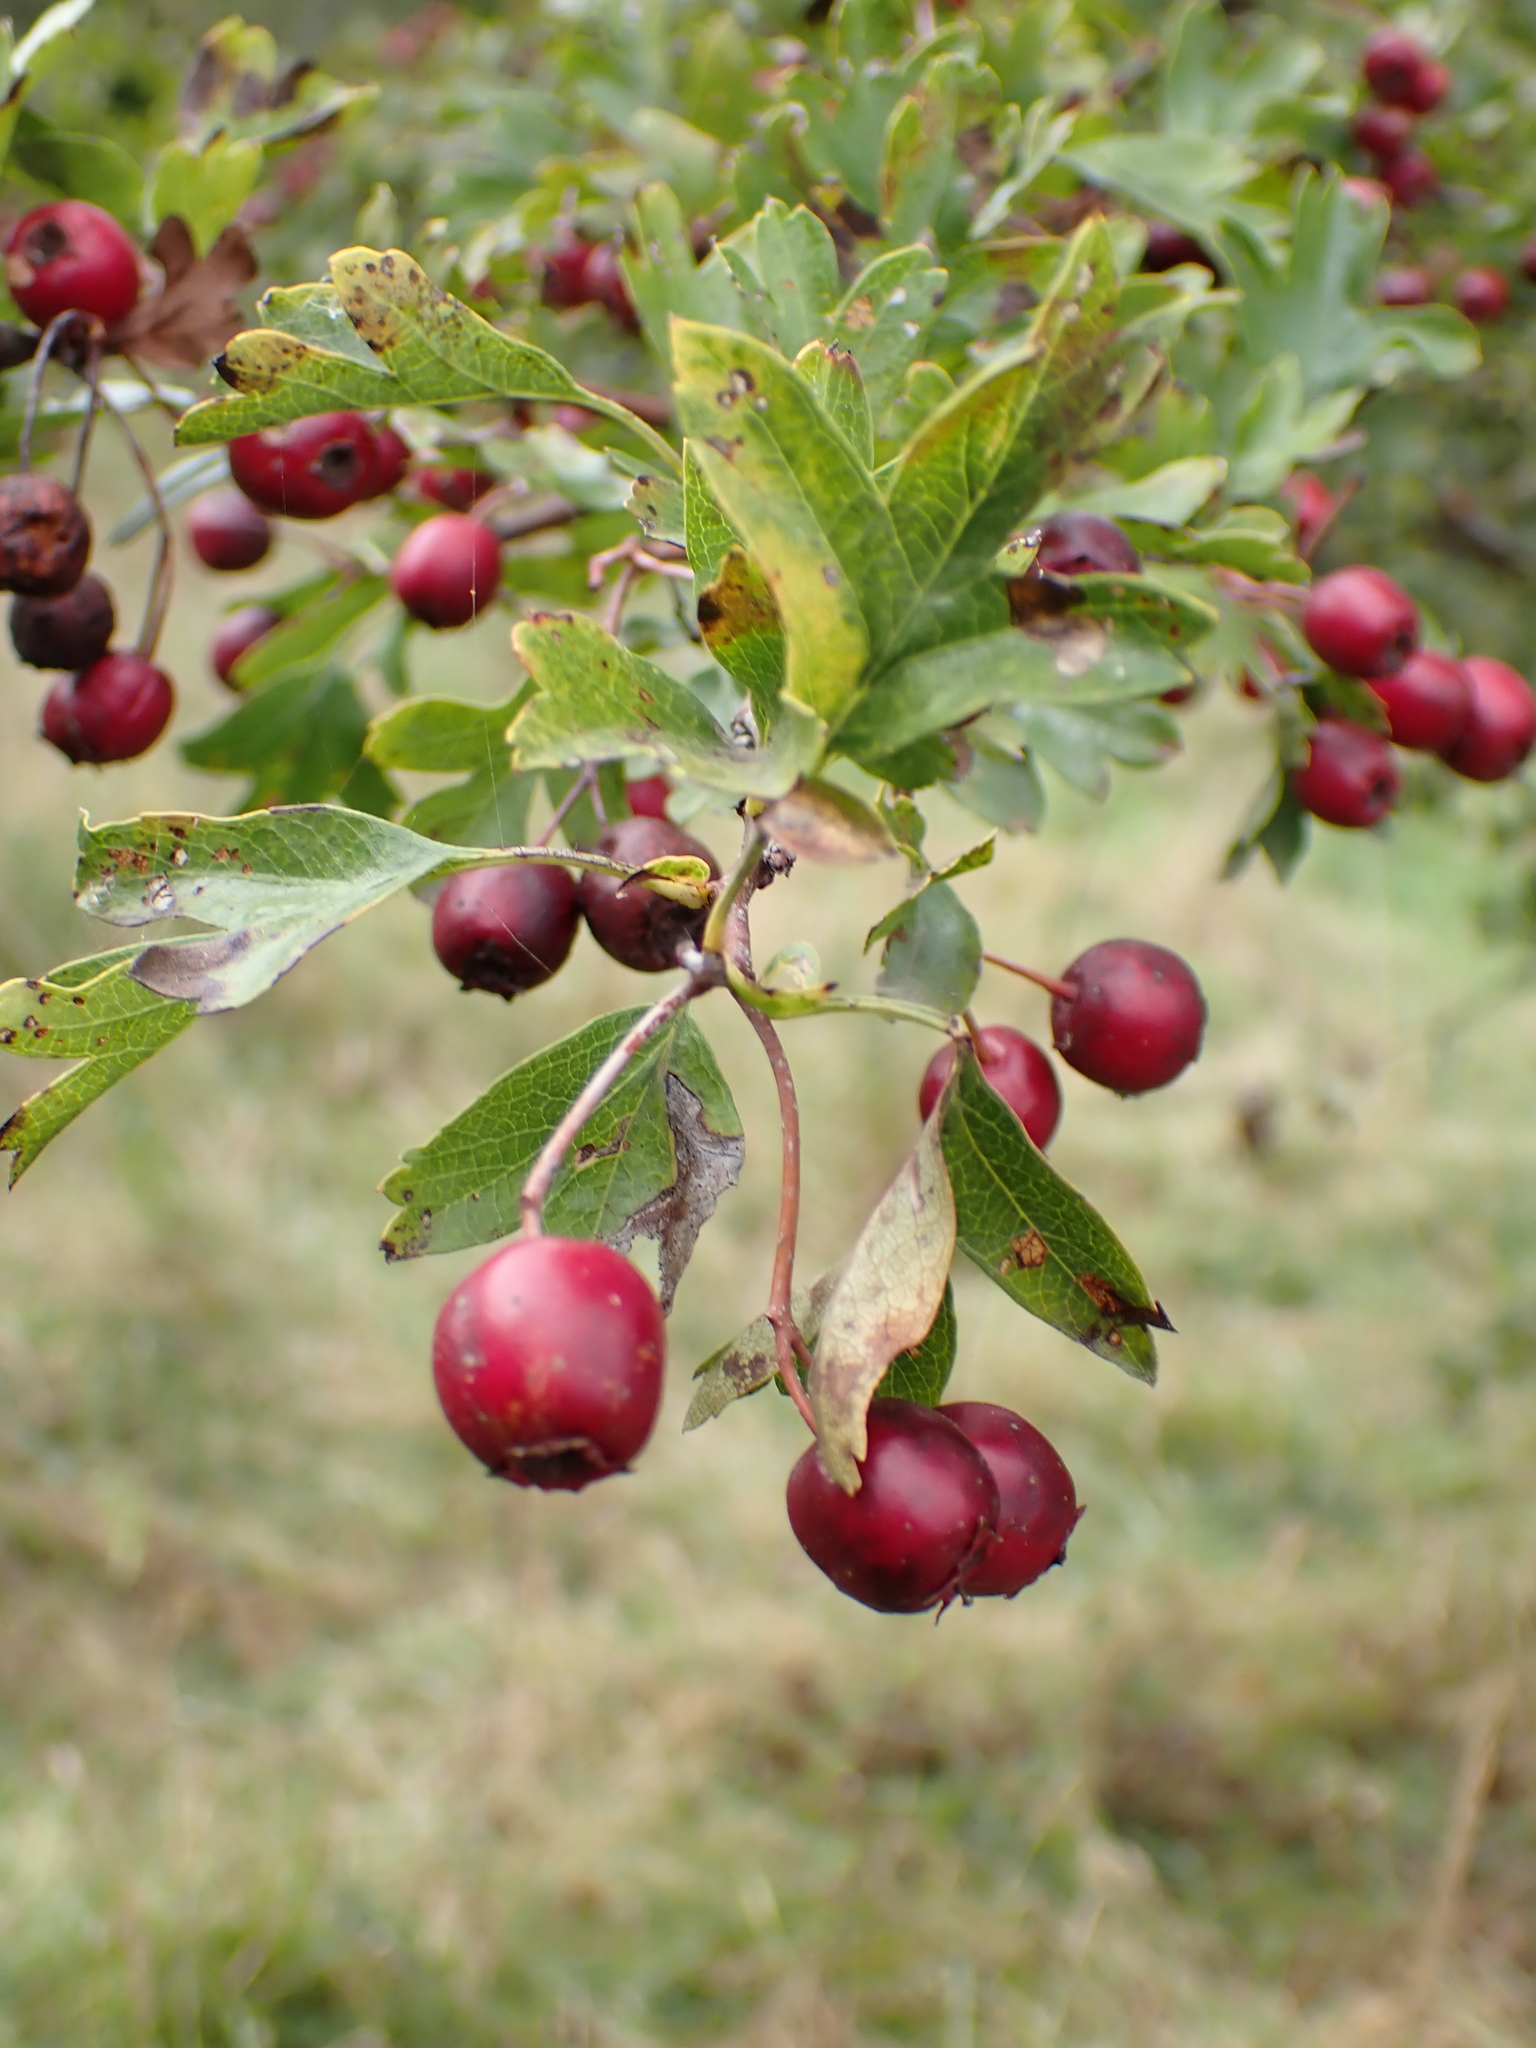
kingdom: Plantae
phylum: Tracheophyta
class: Magnoliopsida
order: Rosales
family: Rosaceae
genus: Crataegus
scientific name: Crataegus monogyna
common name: Hawthorn
